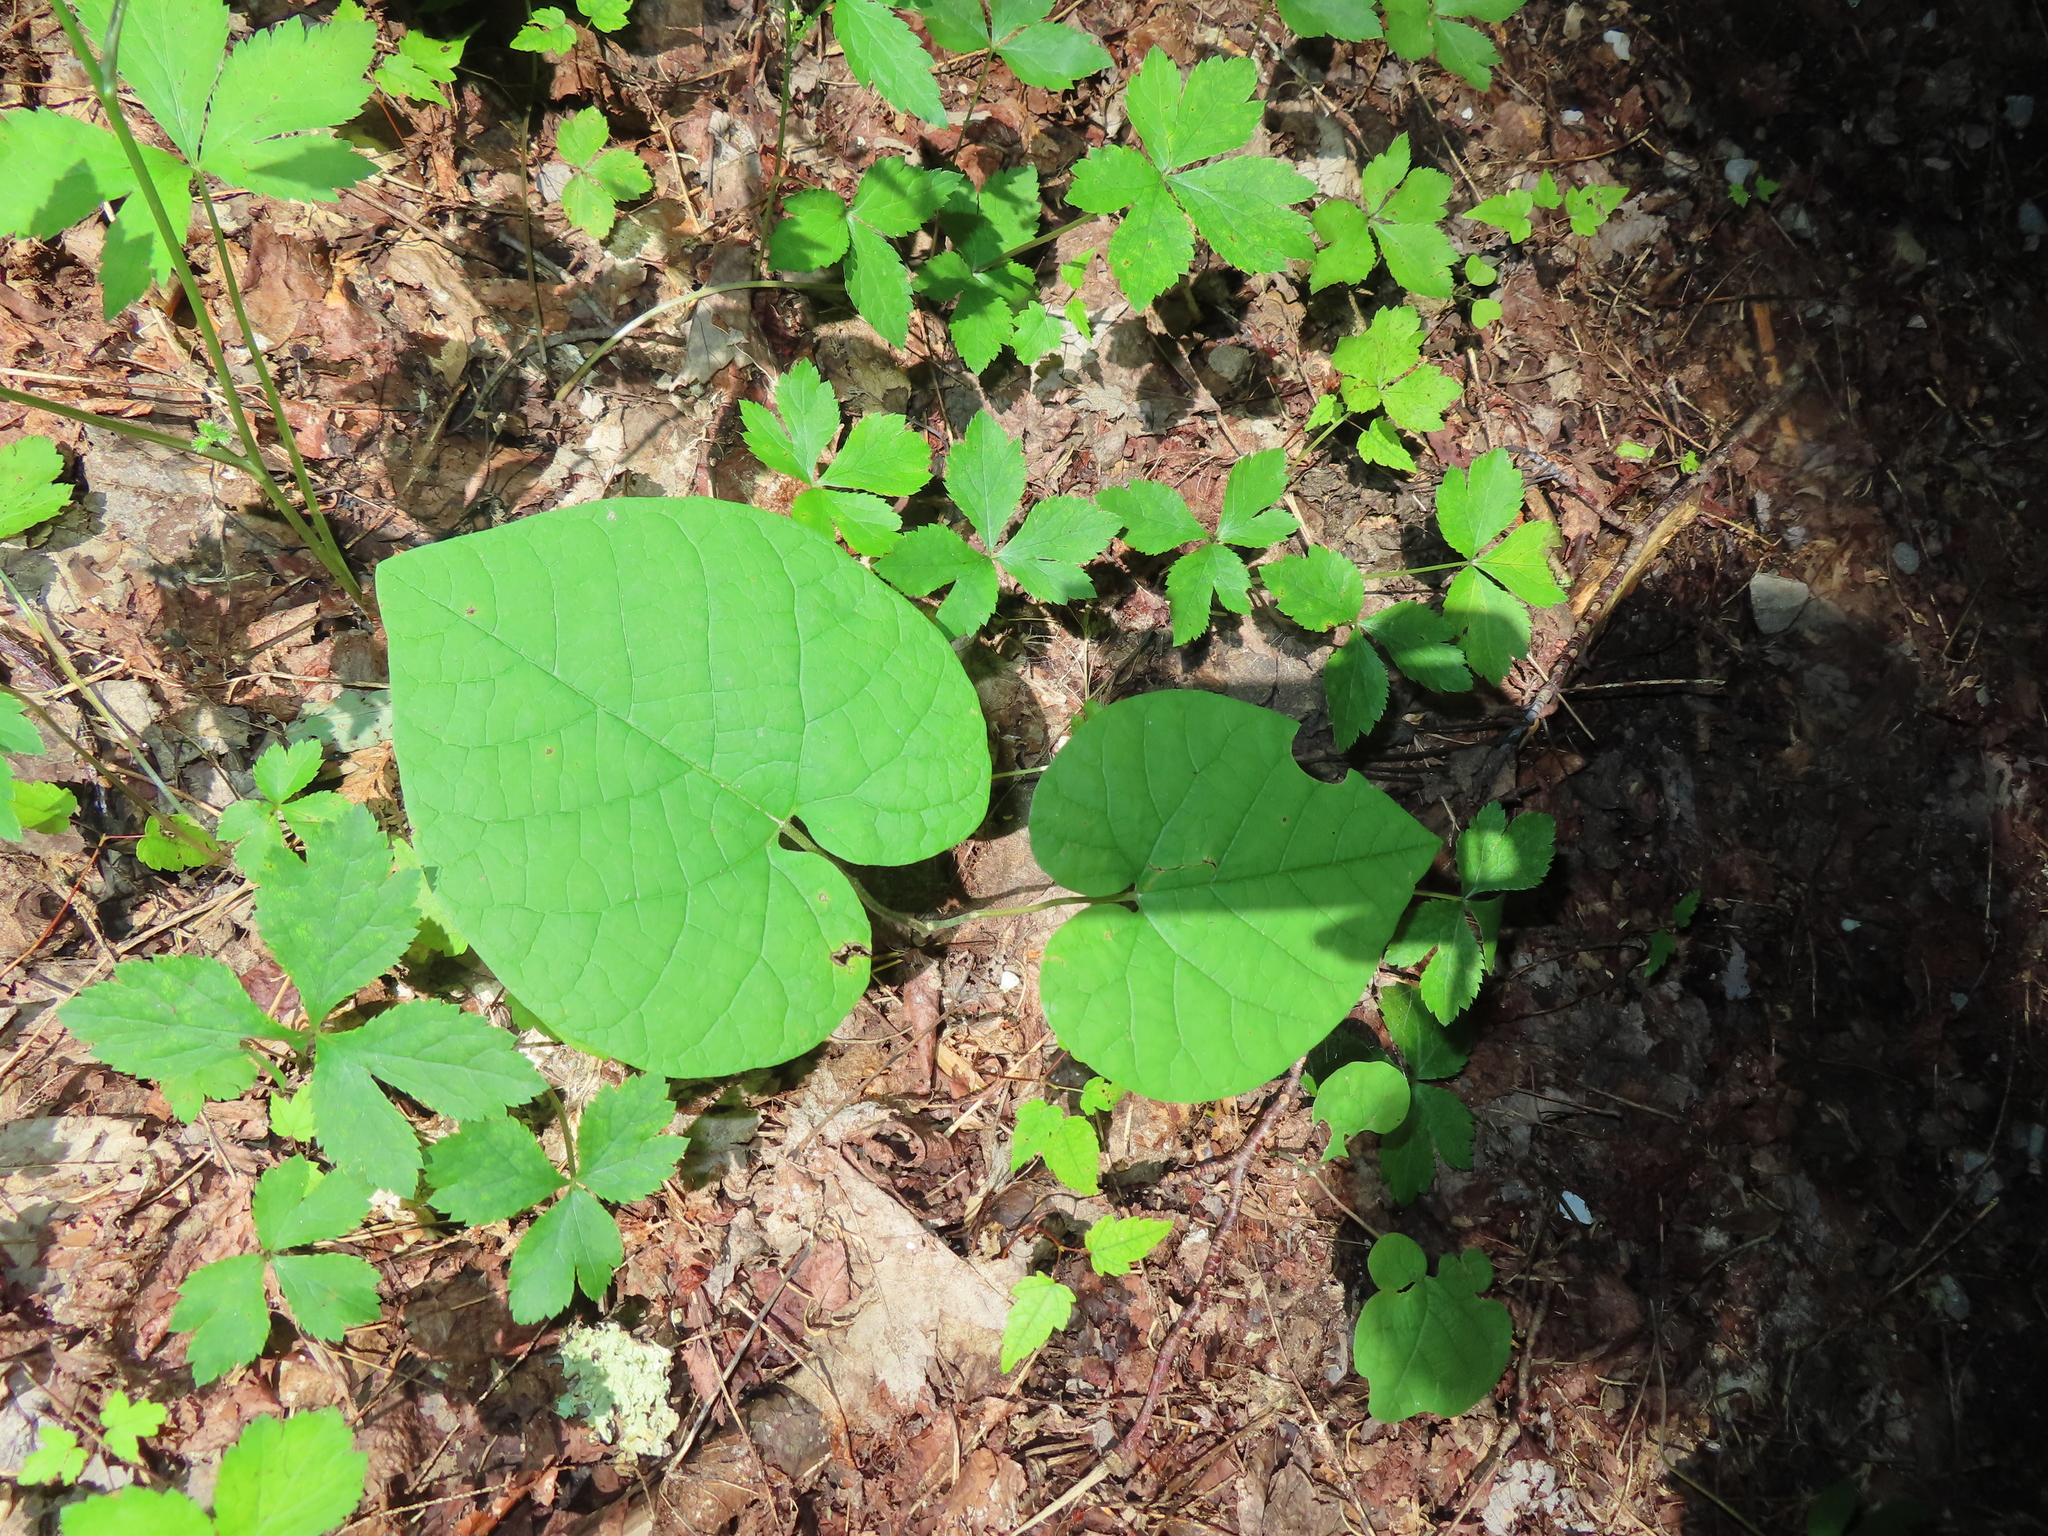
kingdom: Plantae
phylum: Tracheophyta
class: Magnoliopsida
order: Piperales
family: Aristolochiaceae
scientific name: Aristolochiaceae
